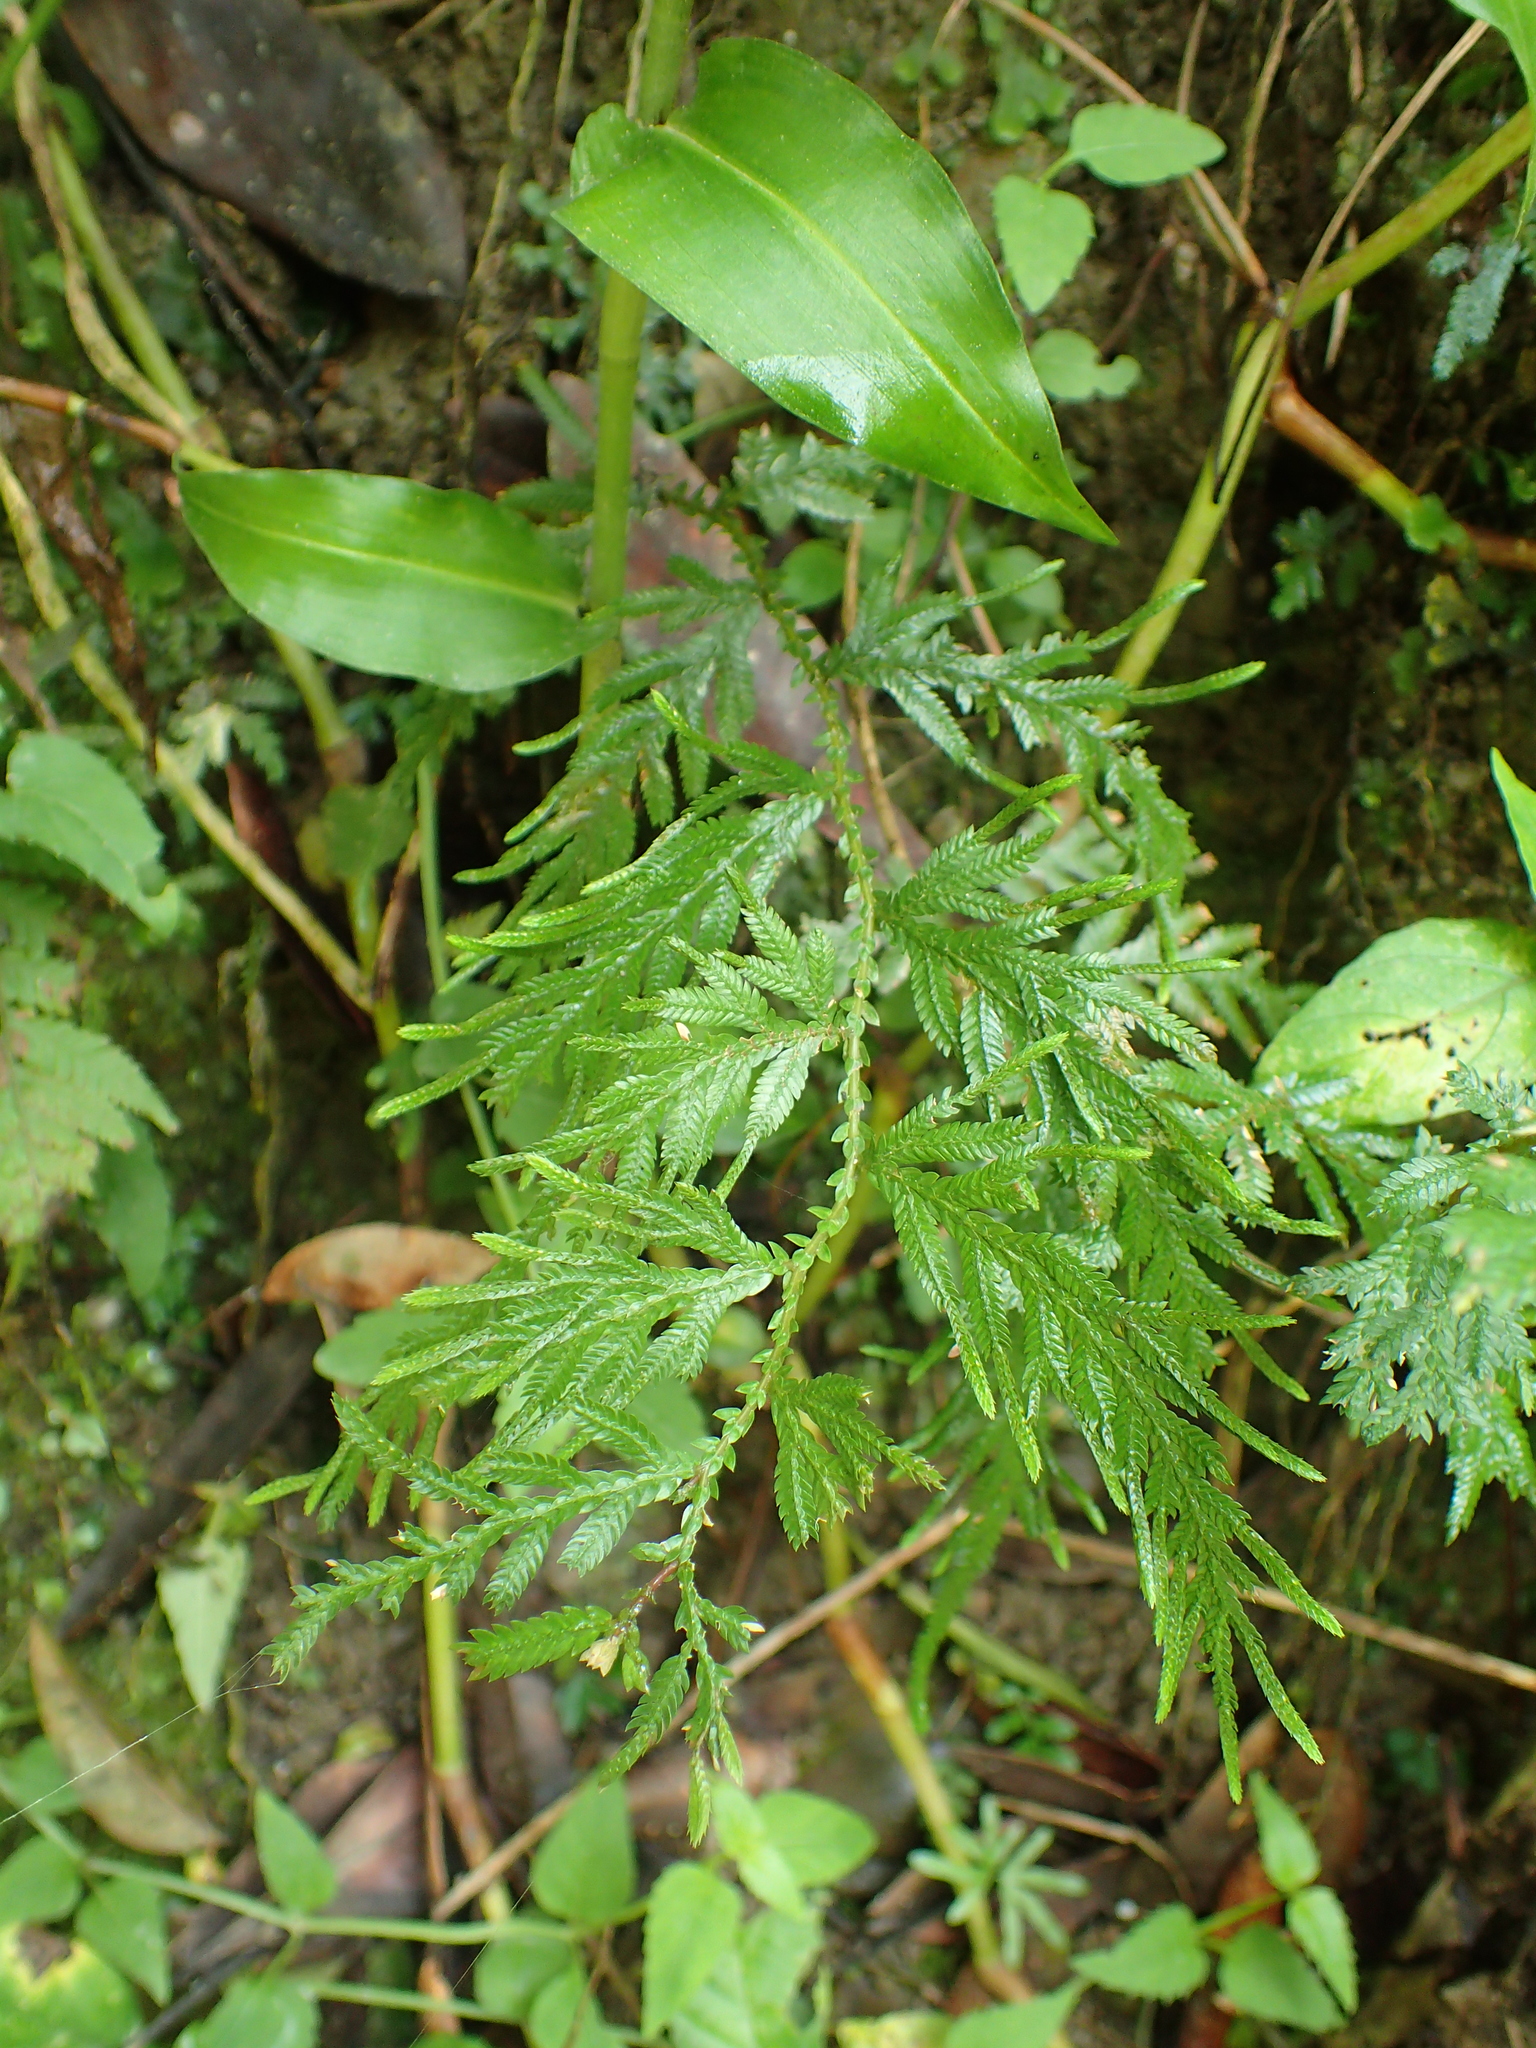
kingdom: Plantae
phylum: Tracheophyta
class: Lycopodiopsida
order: Selaginellales
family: Selaginellaceae
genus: Selaginella
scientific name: Selaginella delicatula
